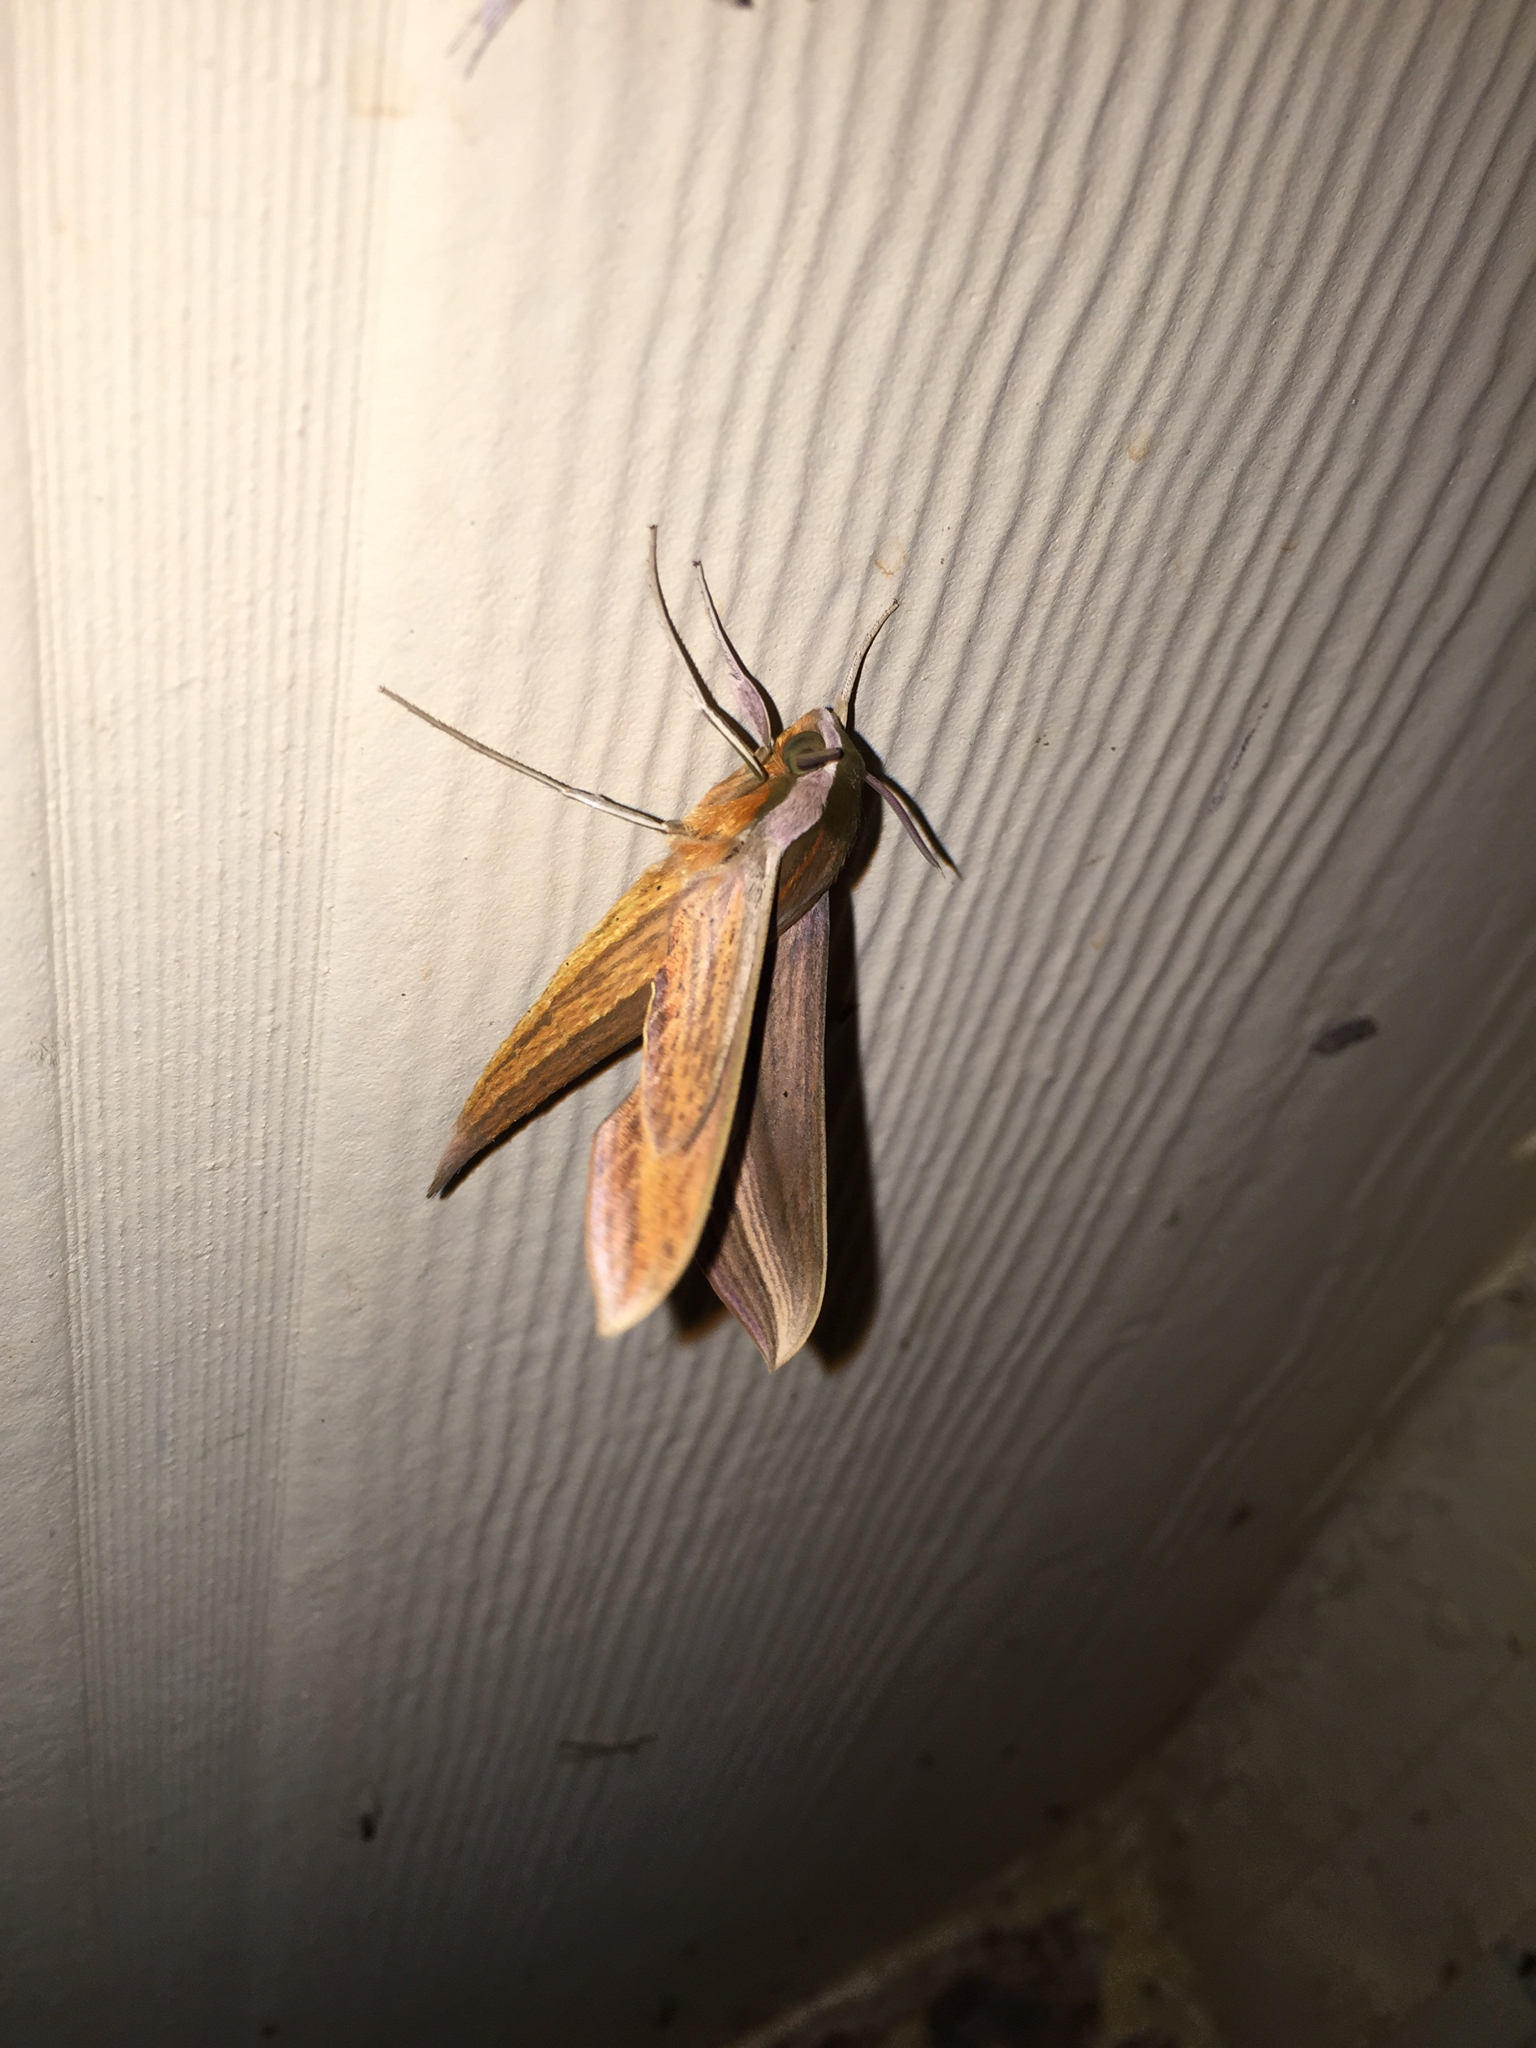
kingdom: Animalia
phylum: Arthropoda
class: Insecta
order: Lepidoptera
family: Sphingidae
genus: Xylophanes
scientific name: Xylophanes tersa
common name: Tersa sphinx
